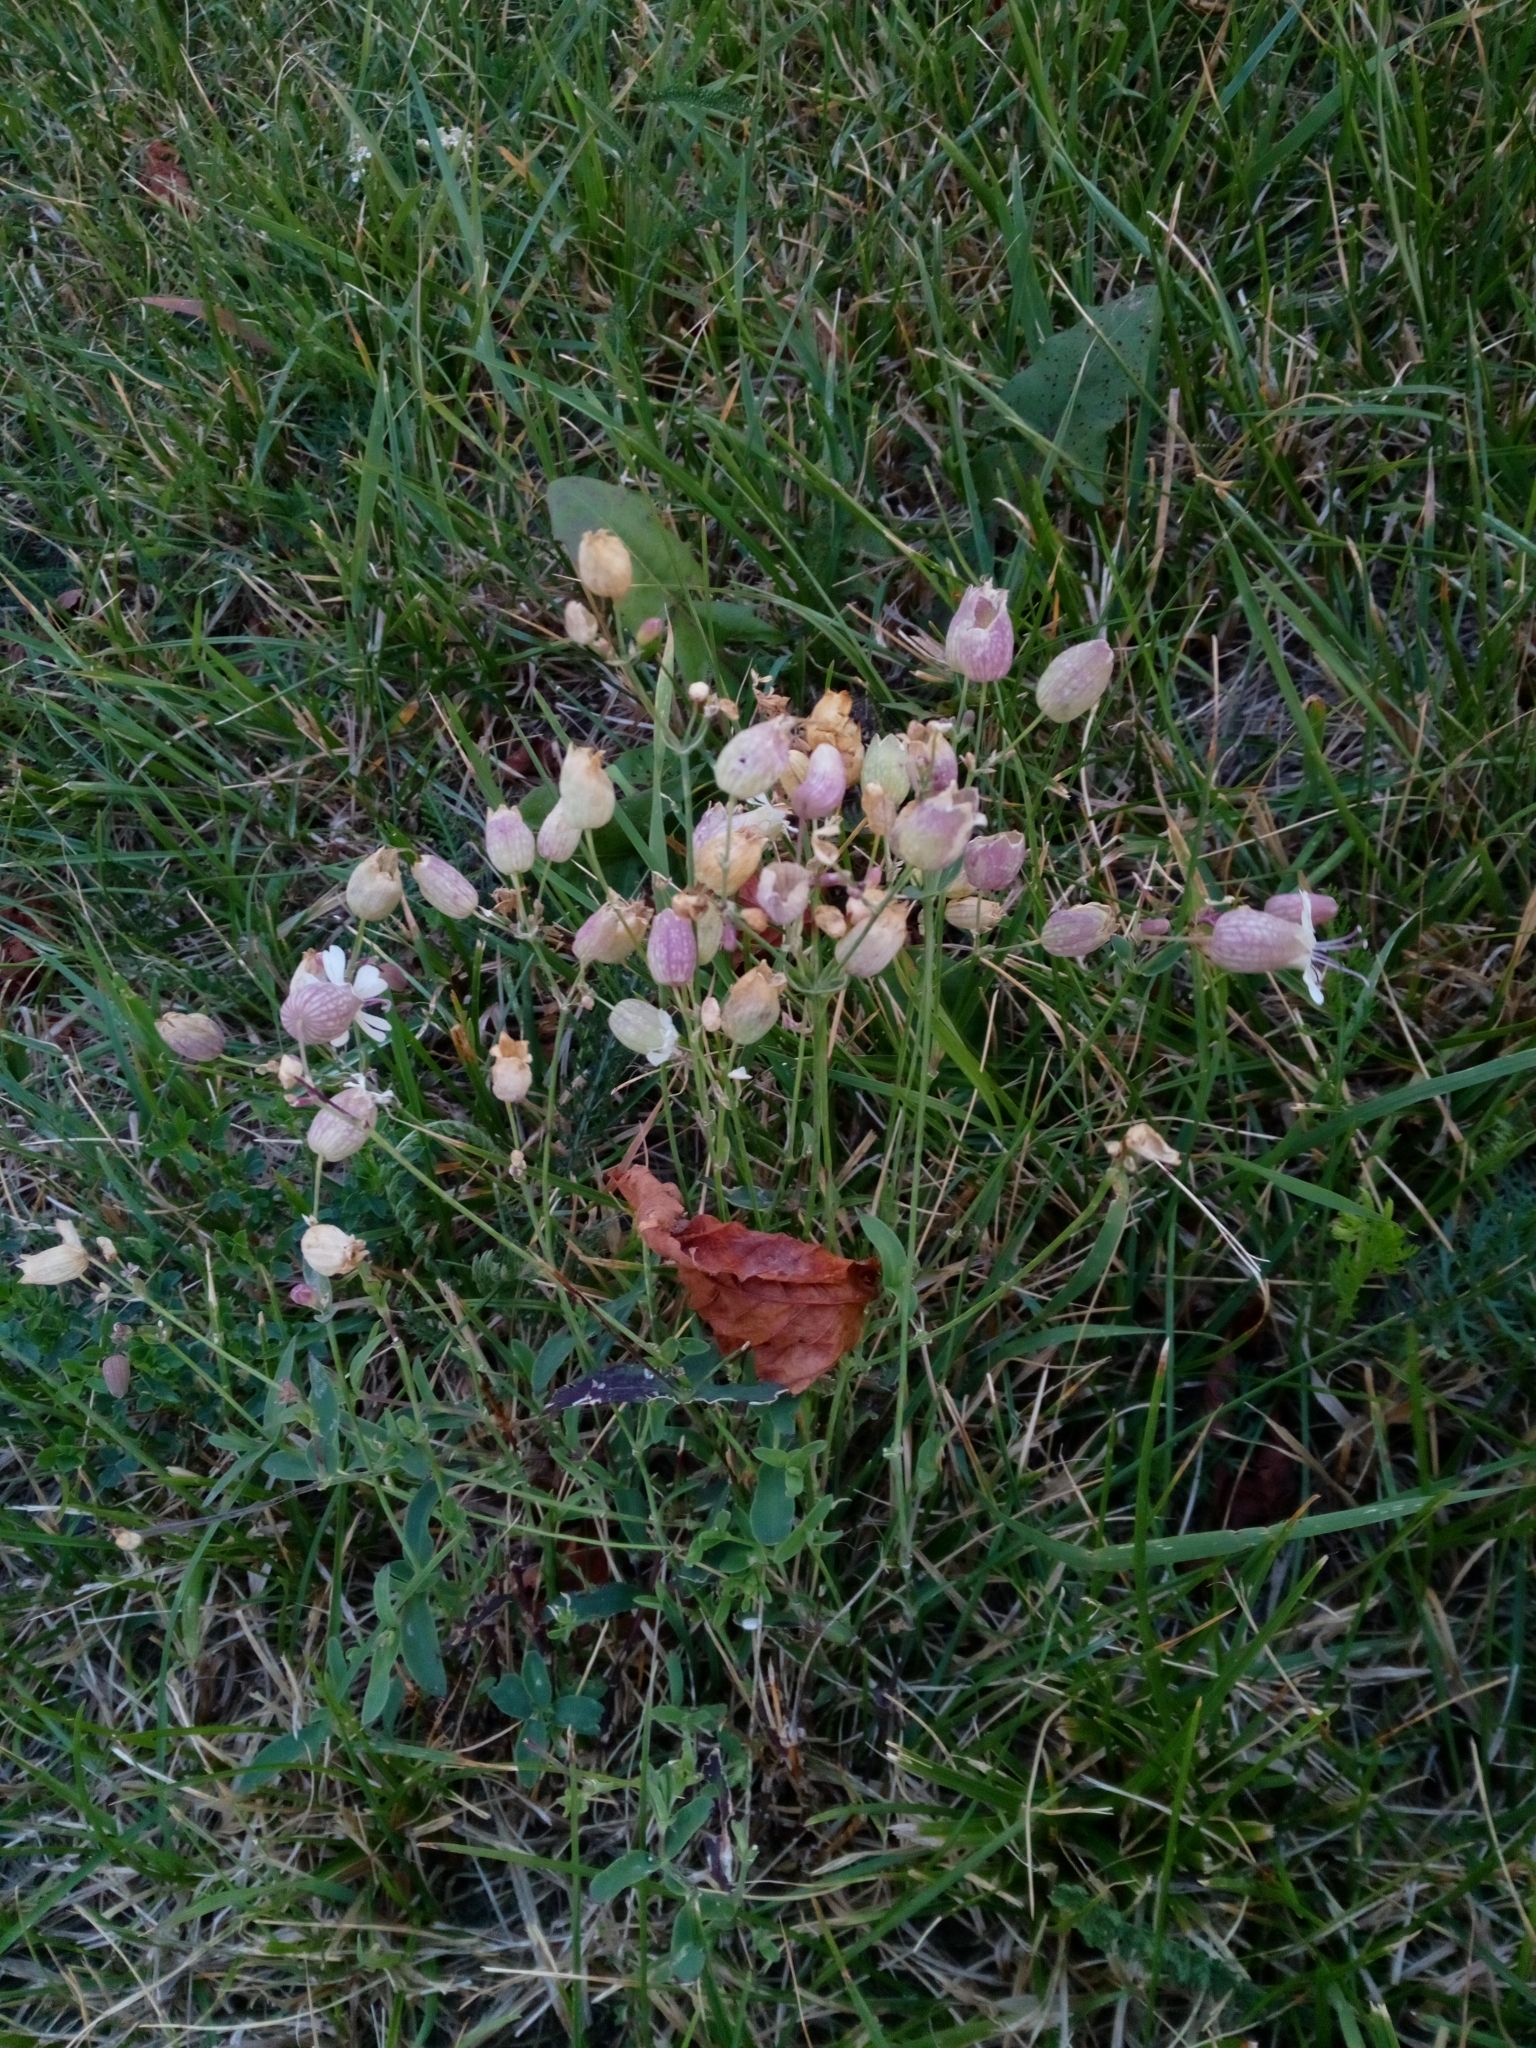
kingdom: Plantae
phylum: Tracheophyta
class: Magnoliopsida
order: Caryophyllales
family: Caryophyllaceae
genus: Silene
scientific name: Silene vulgaris
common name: Bladder campion
